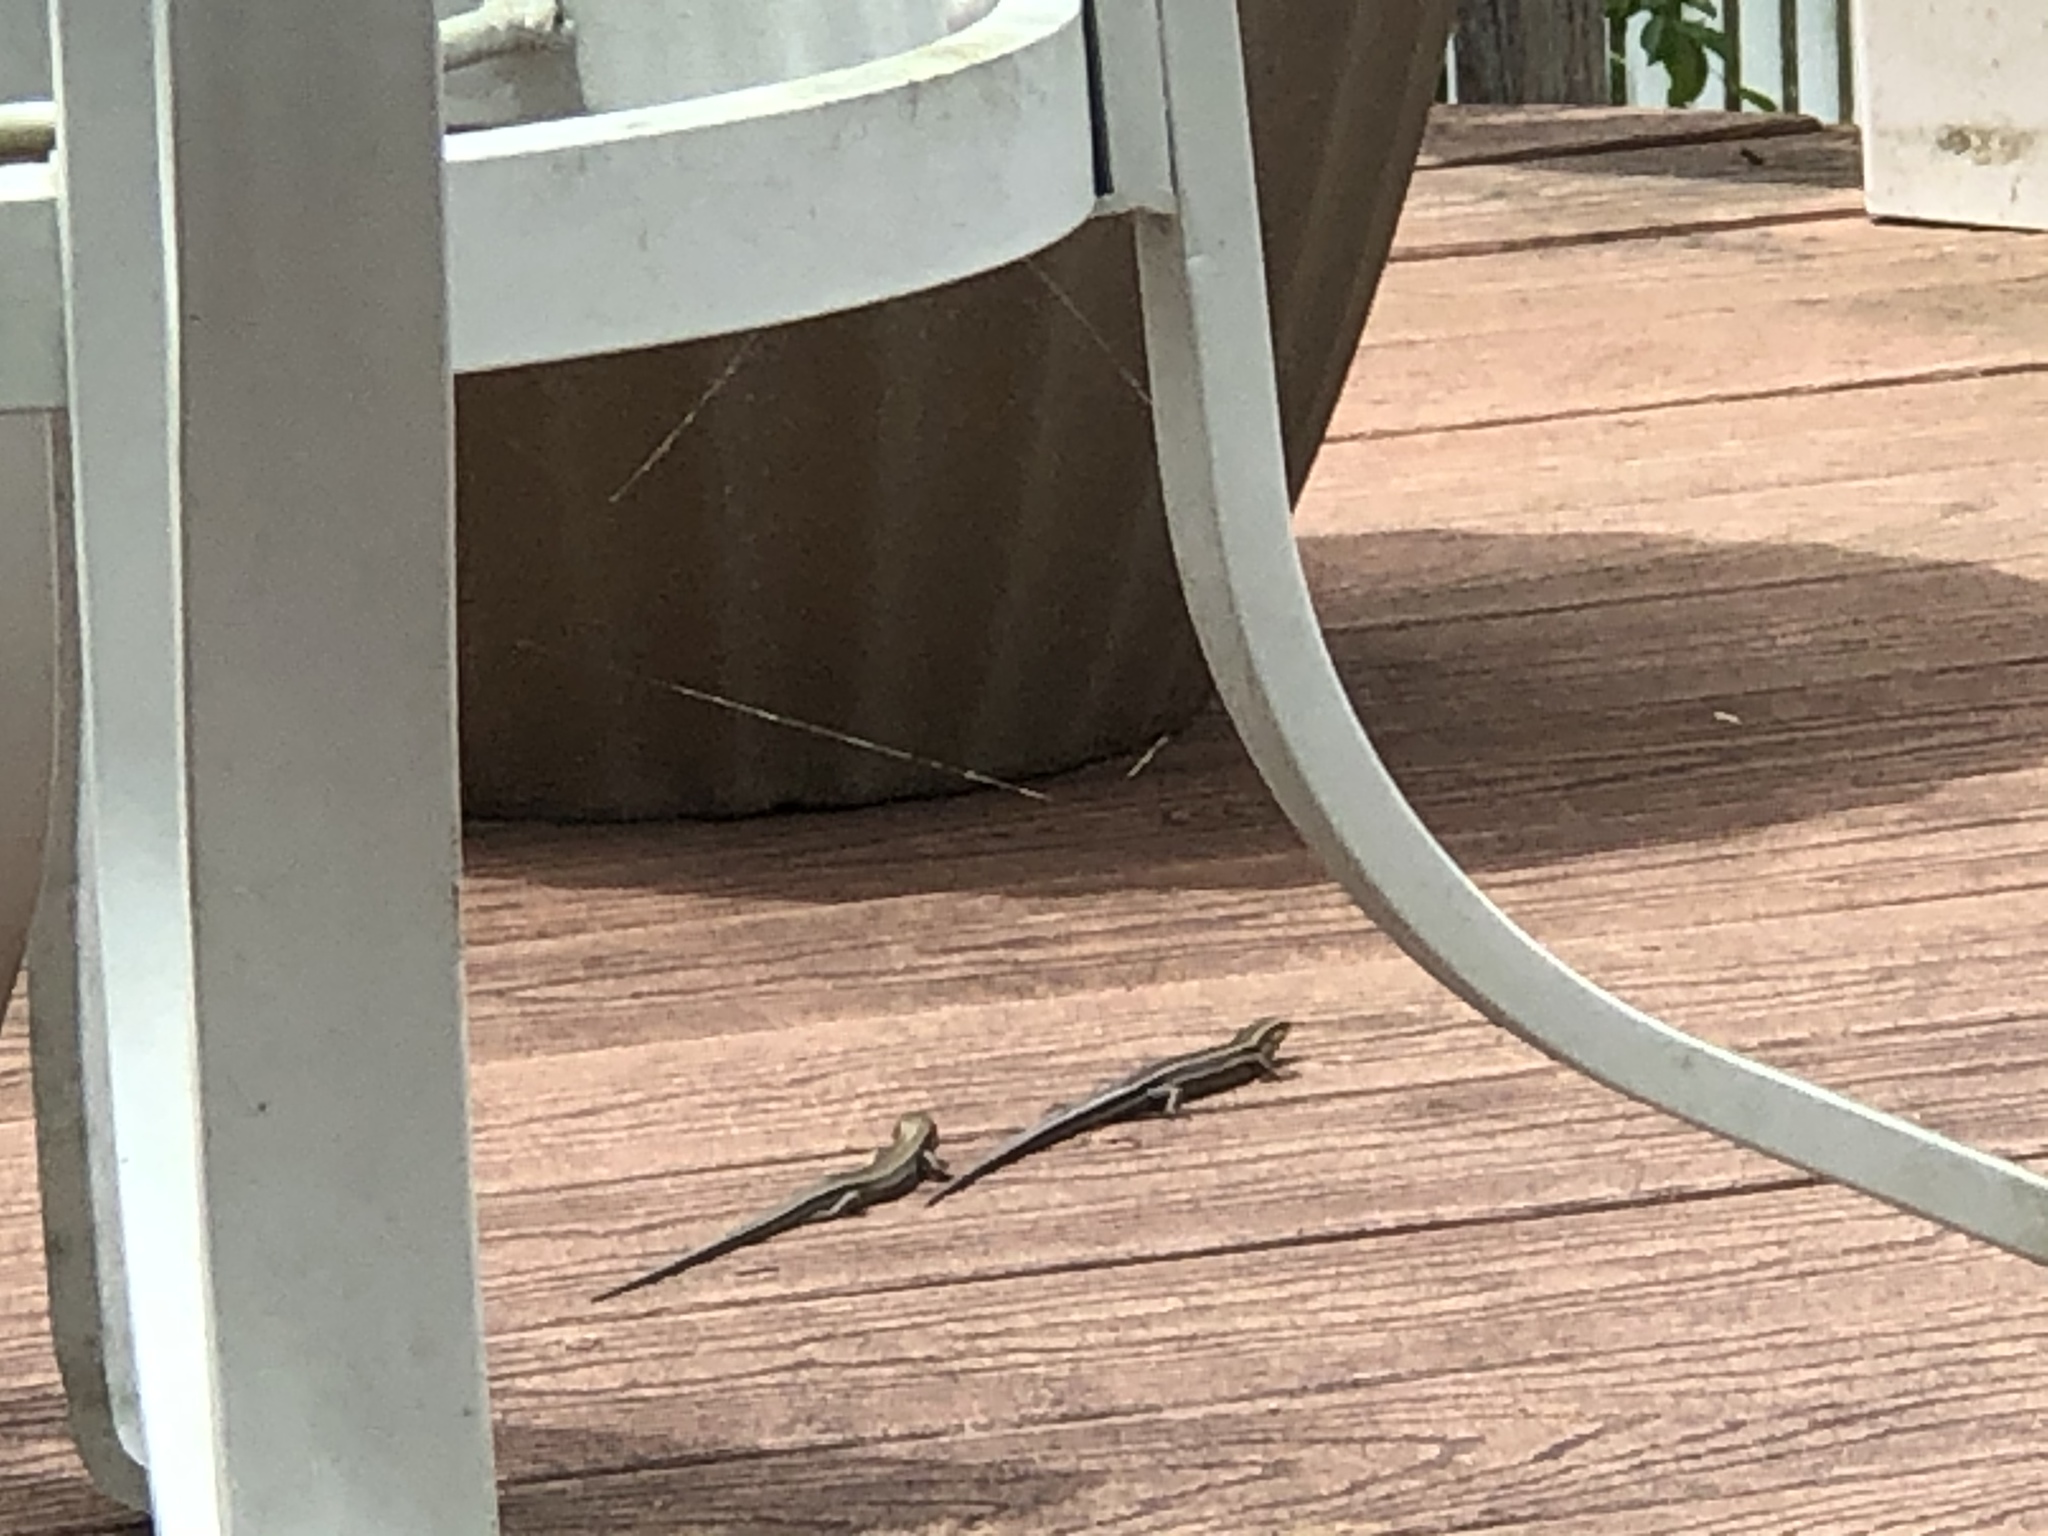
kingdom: Animalia
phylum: Chordata
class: Squamata
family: Scincidae
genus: Plestiodon
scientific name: Plestiodon fasciatus
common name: Five-lined skink
